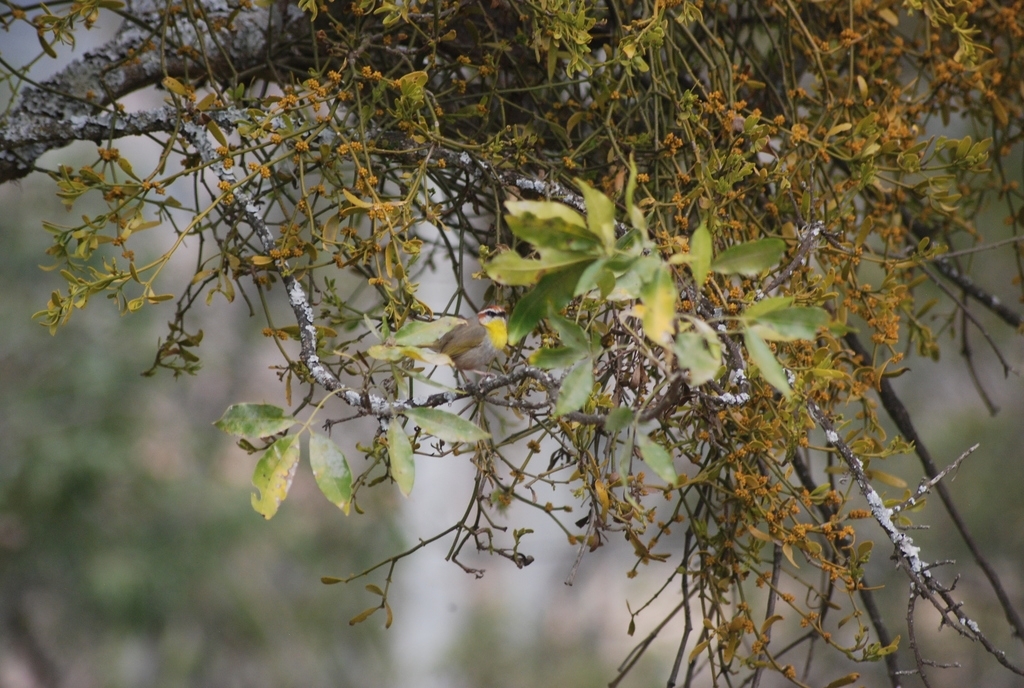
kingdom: Animalia
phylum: Chordata
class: Aves
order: Passeriformes
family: Parulidae
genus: Basileuterus
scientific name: Basileuterus rufifrons
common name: Rufous-capped warbler
